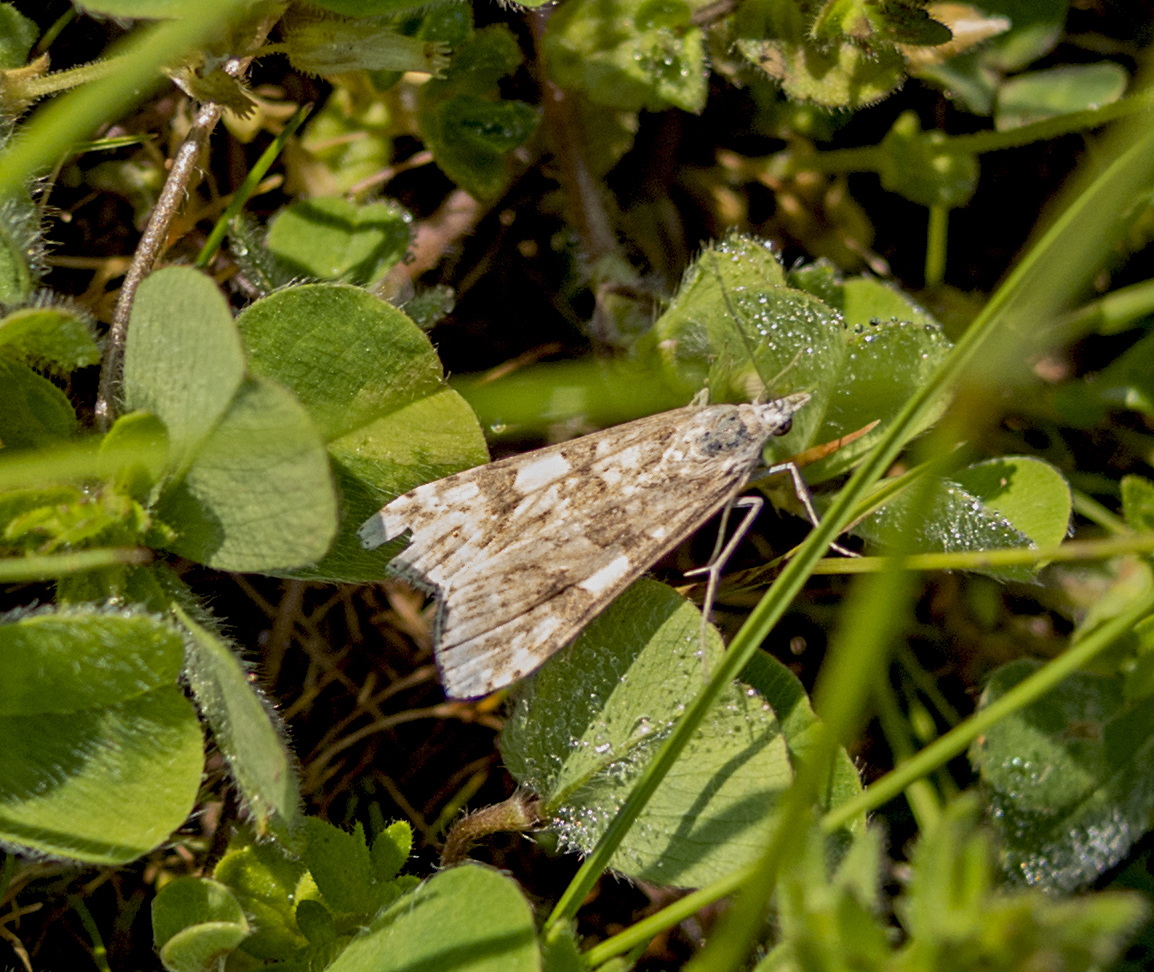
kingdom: Animalia
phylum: Arthropoda
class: Insecta
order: Lepidoptera
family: Crambidae
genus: Nomophila
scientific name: Nomophila noctuella
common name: Rush veneer
